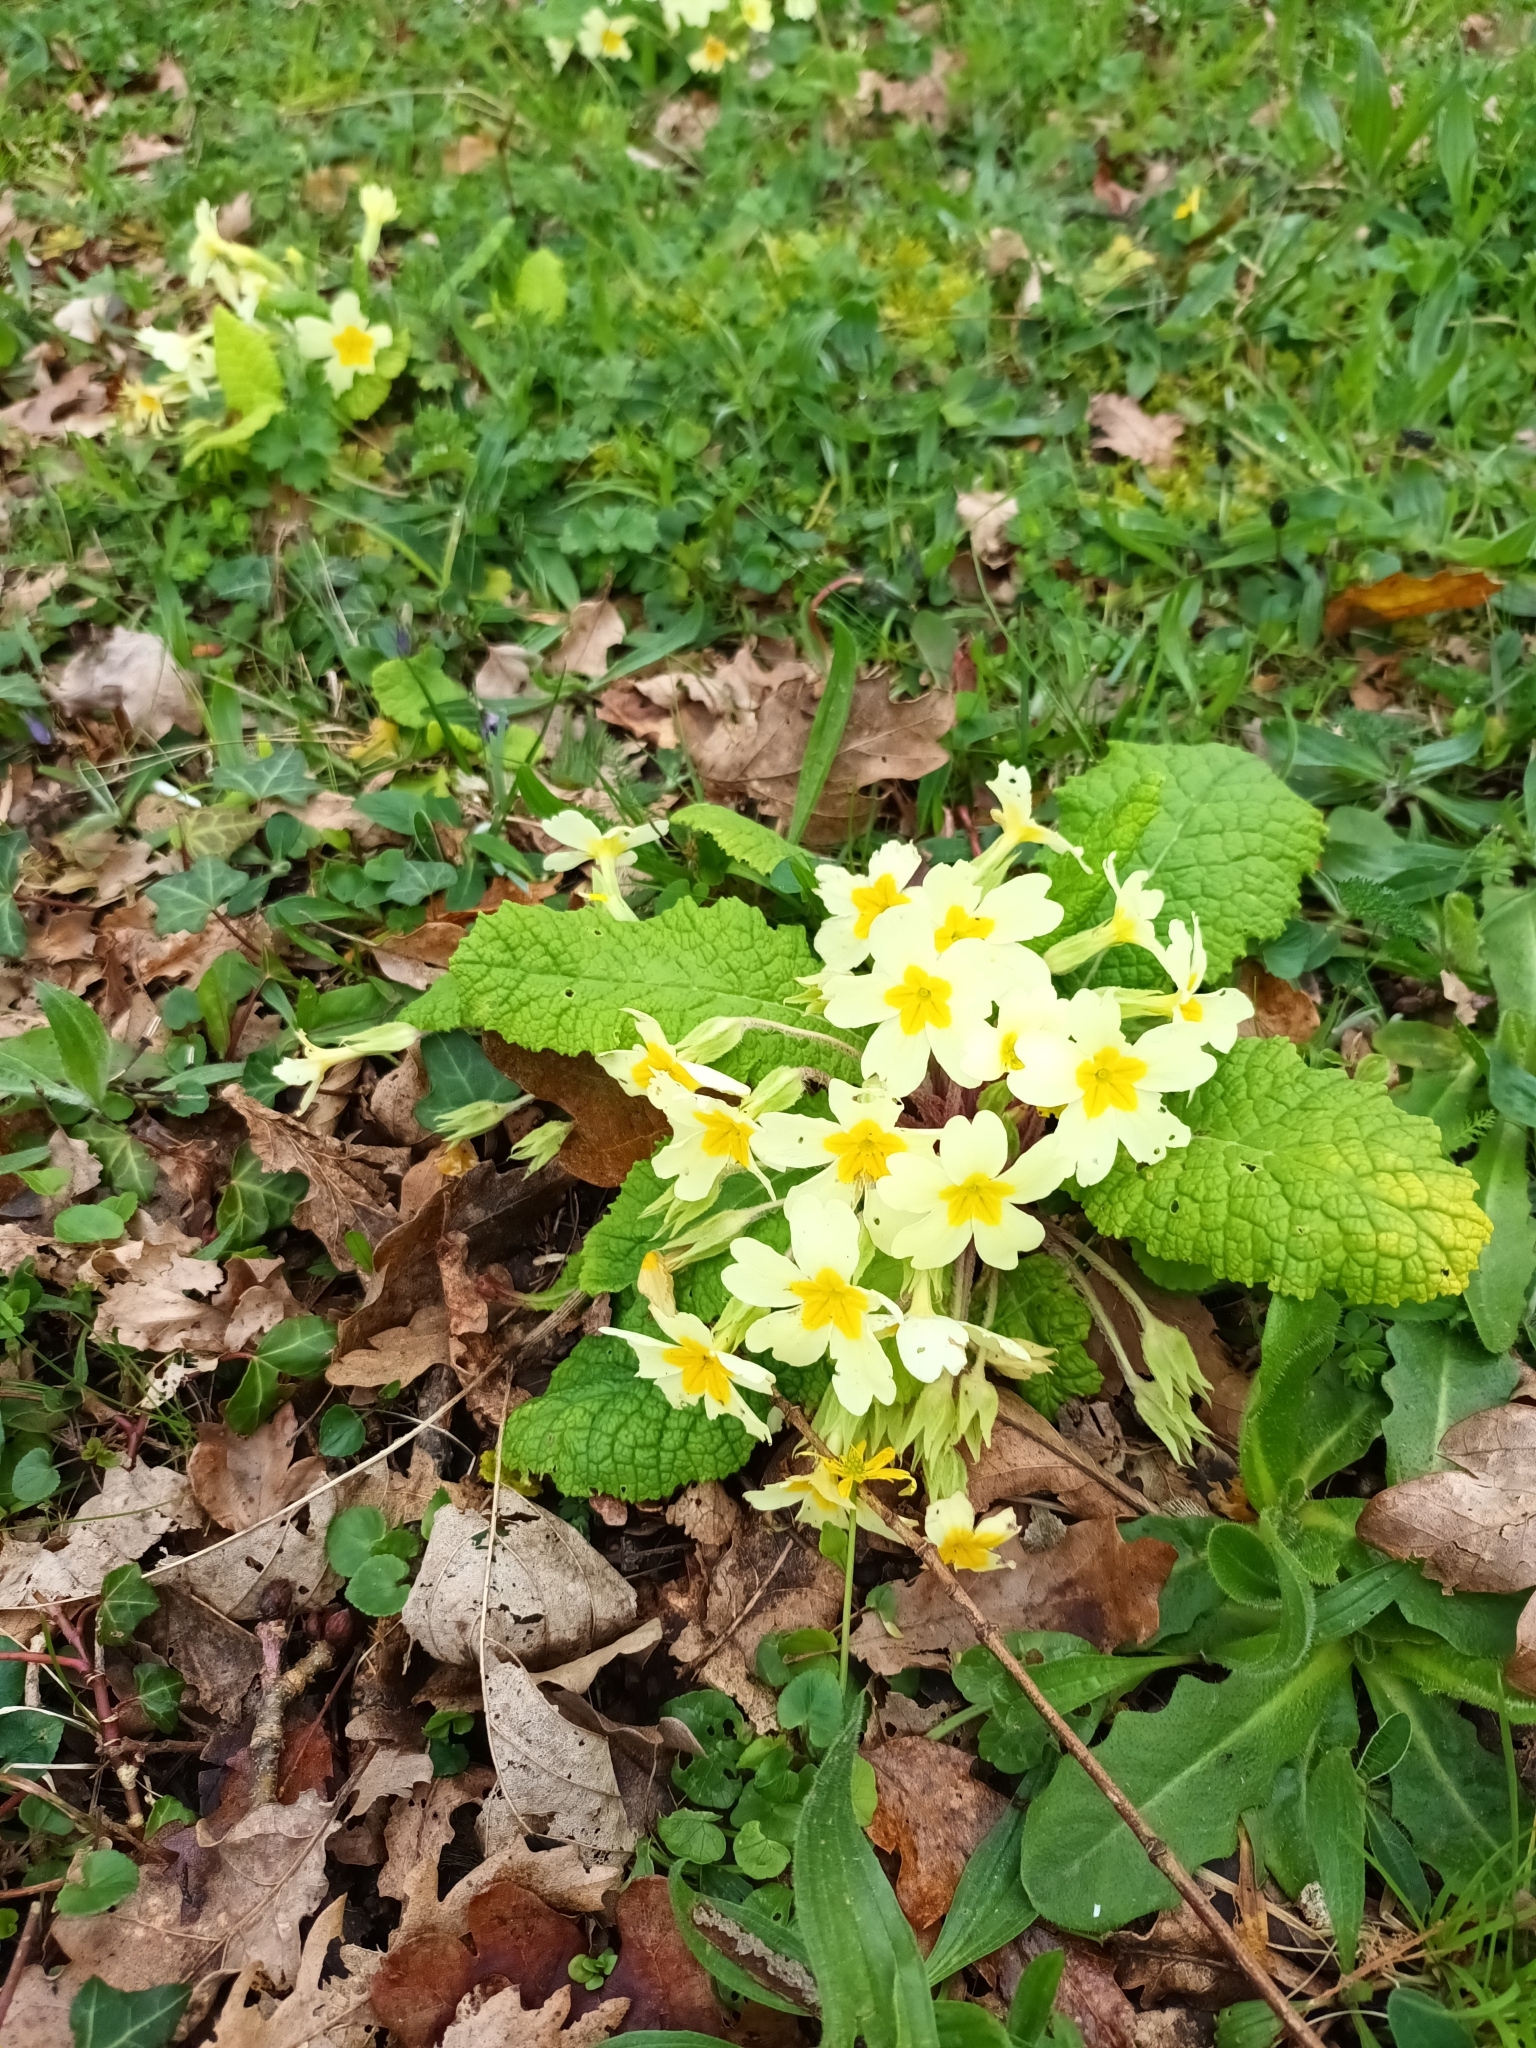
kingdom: Plantae
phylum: Tracheophyta
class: Magnoliopsida
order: Ericales
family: Primulaceae
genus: Primula
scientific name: Primula vulgaris
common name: Primrose
